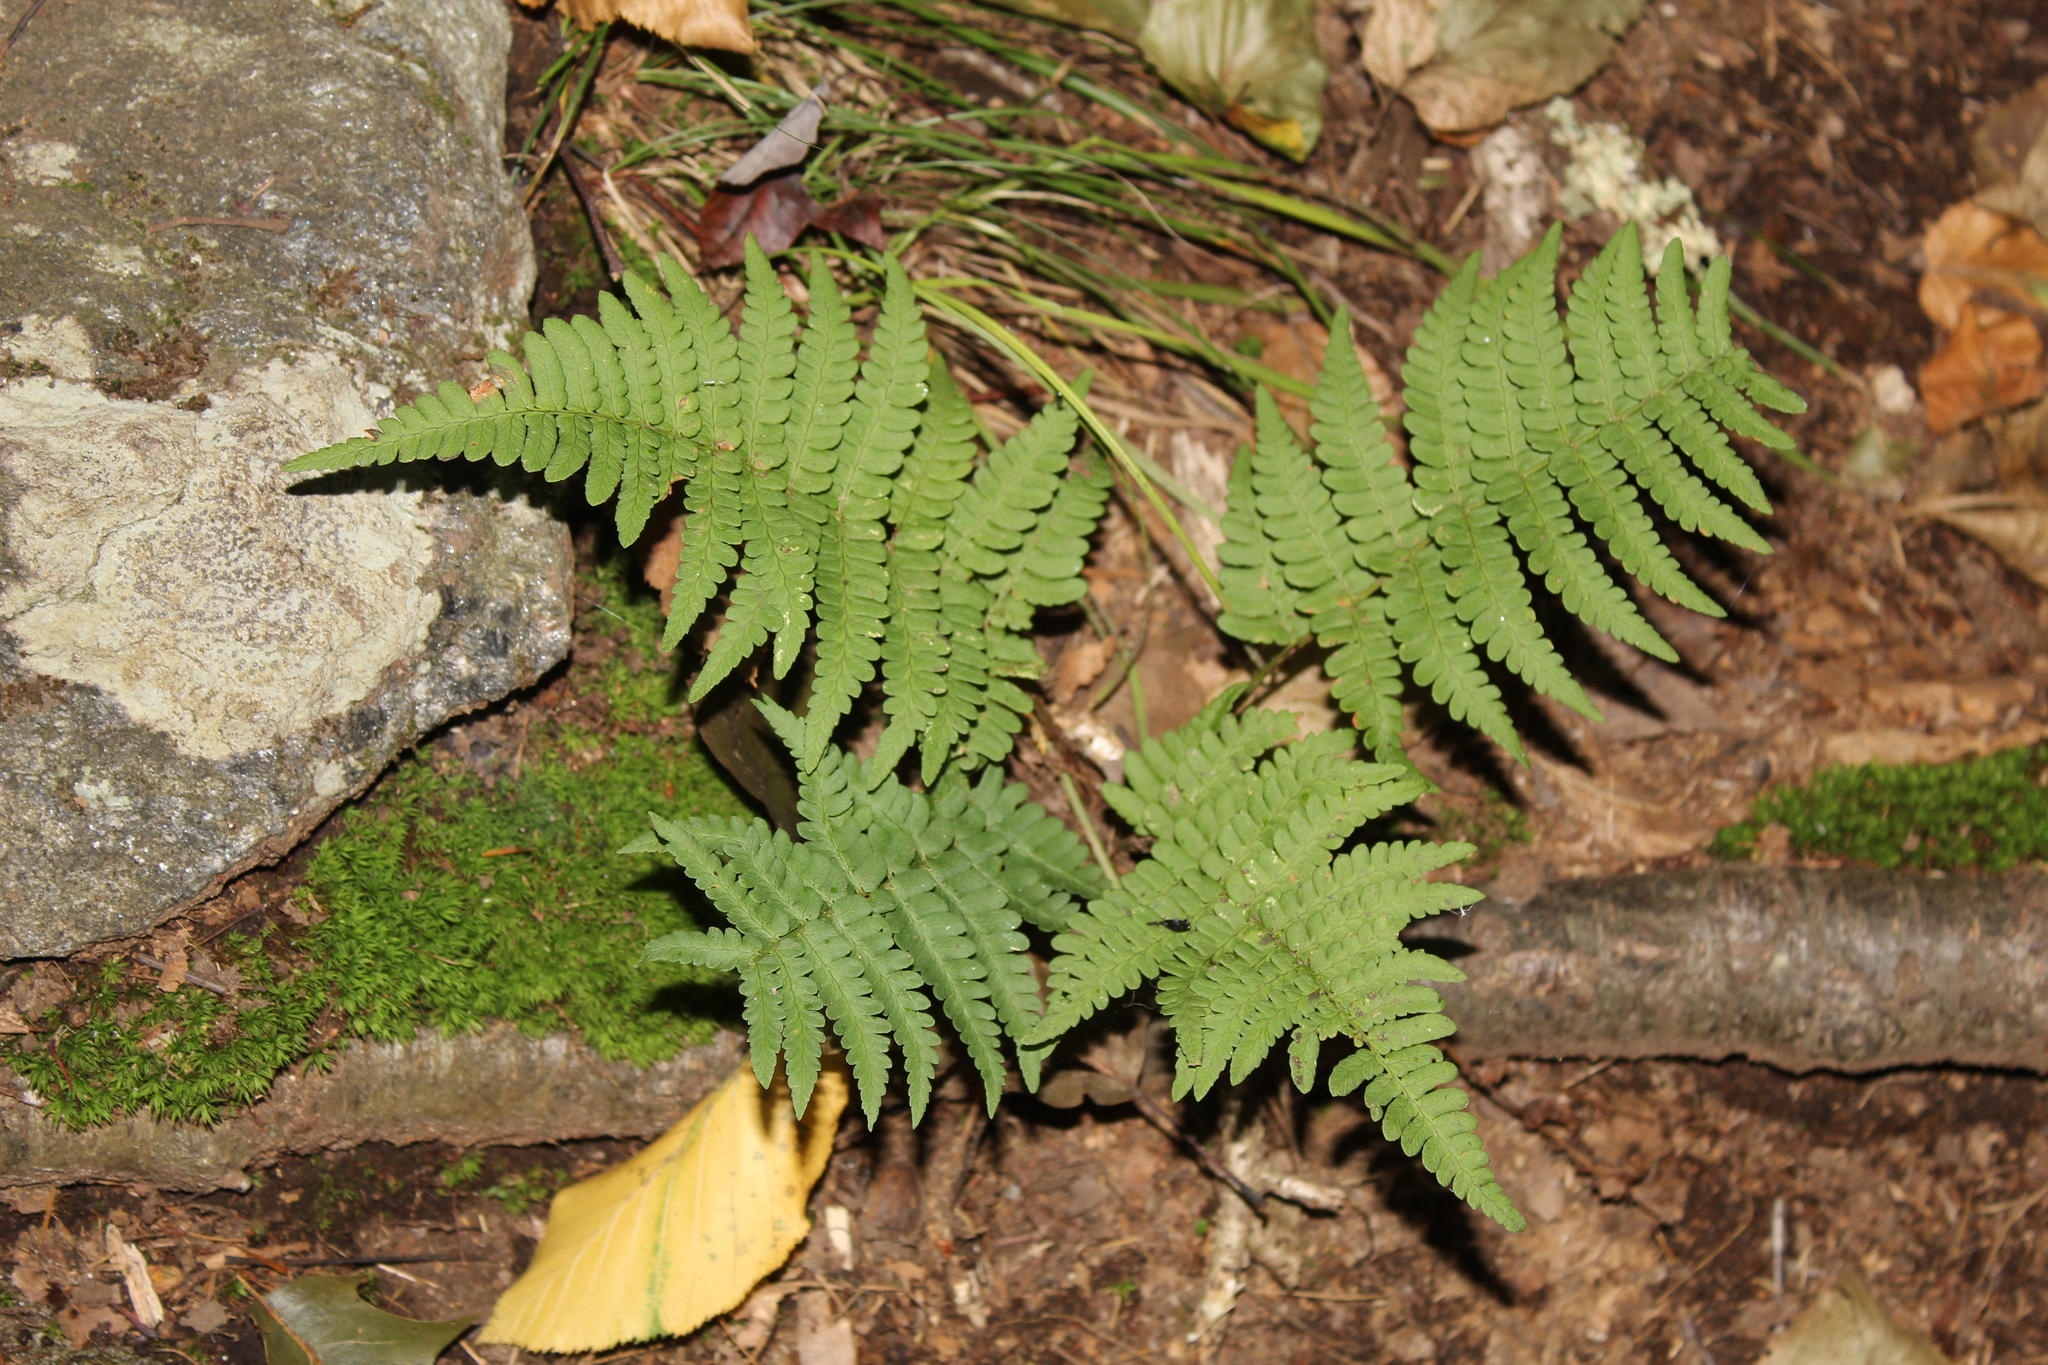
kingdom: Plantae
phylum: Tracheophyta
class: Polypodiopsida
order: Polypodiales
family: Dryopteridaceae
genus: Dryopteris
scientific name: Dryopteris marginalis
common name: Marginal wood fern
